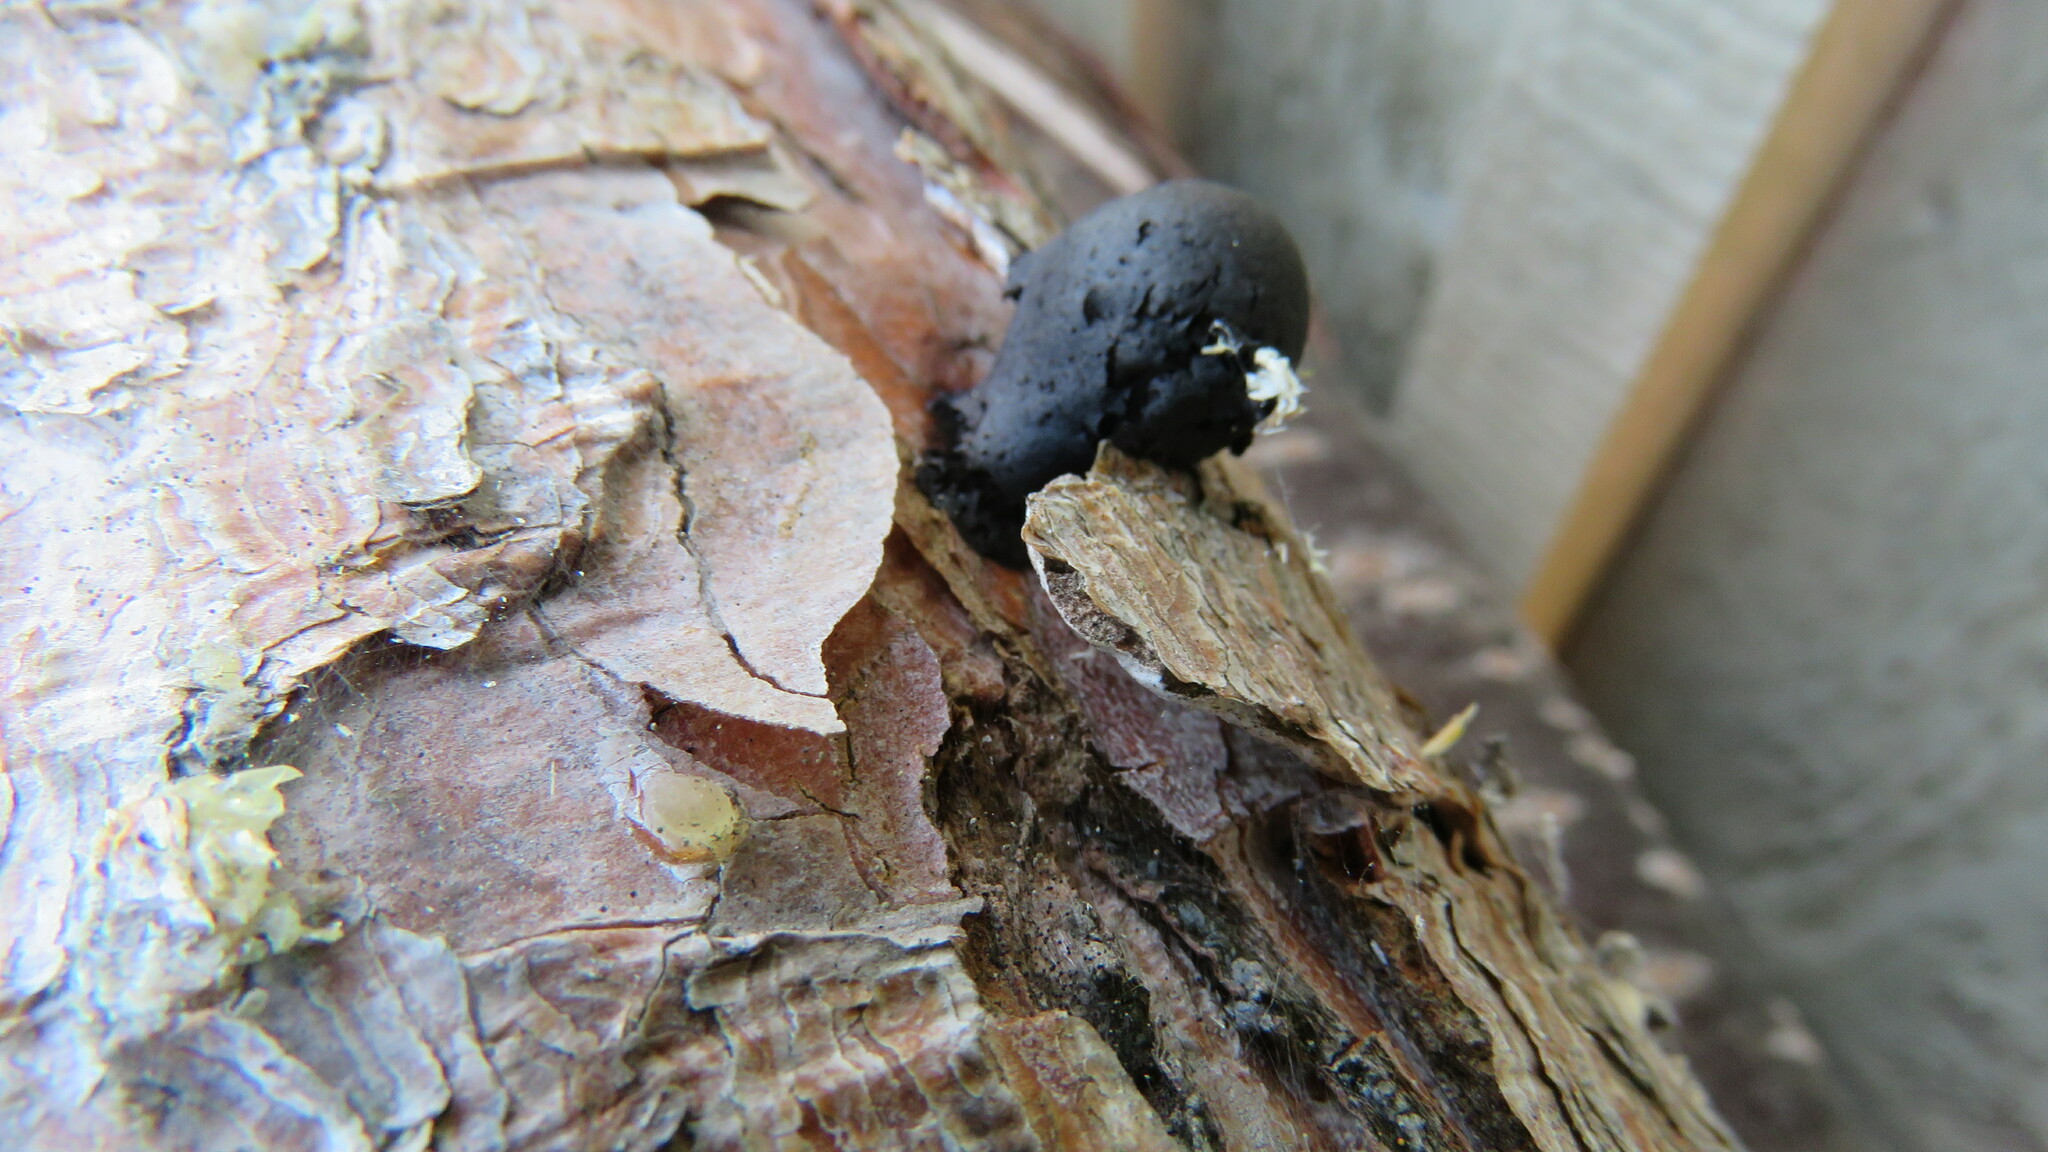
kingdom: Fungi
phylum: Ascomycota
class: Sordariomycetes
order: Xylariales
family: Hypoxylaceae
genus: Daldinia
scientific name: Daldinia childiae
